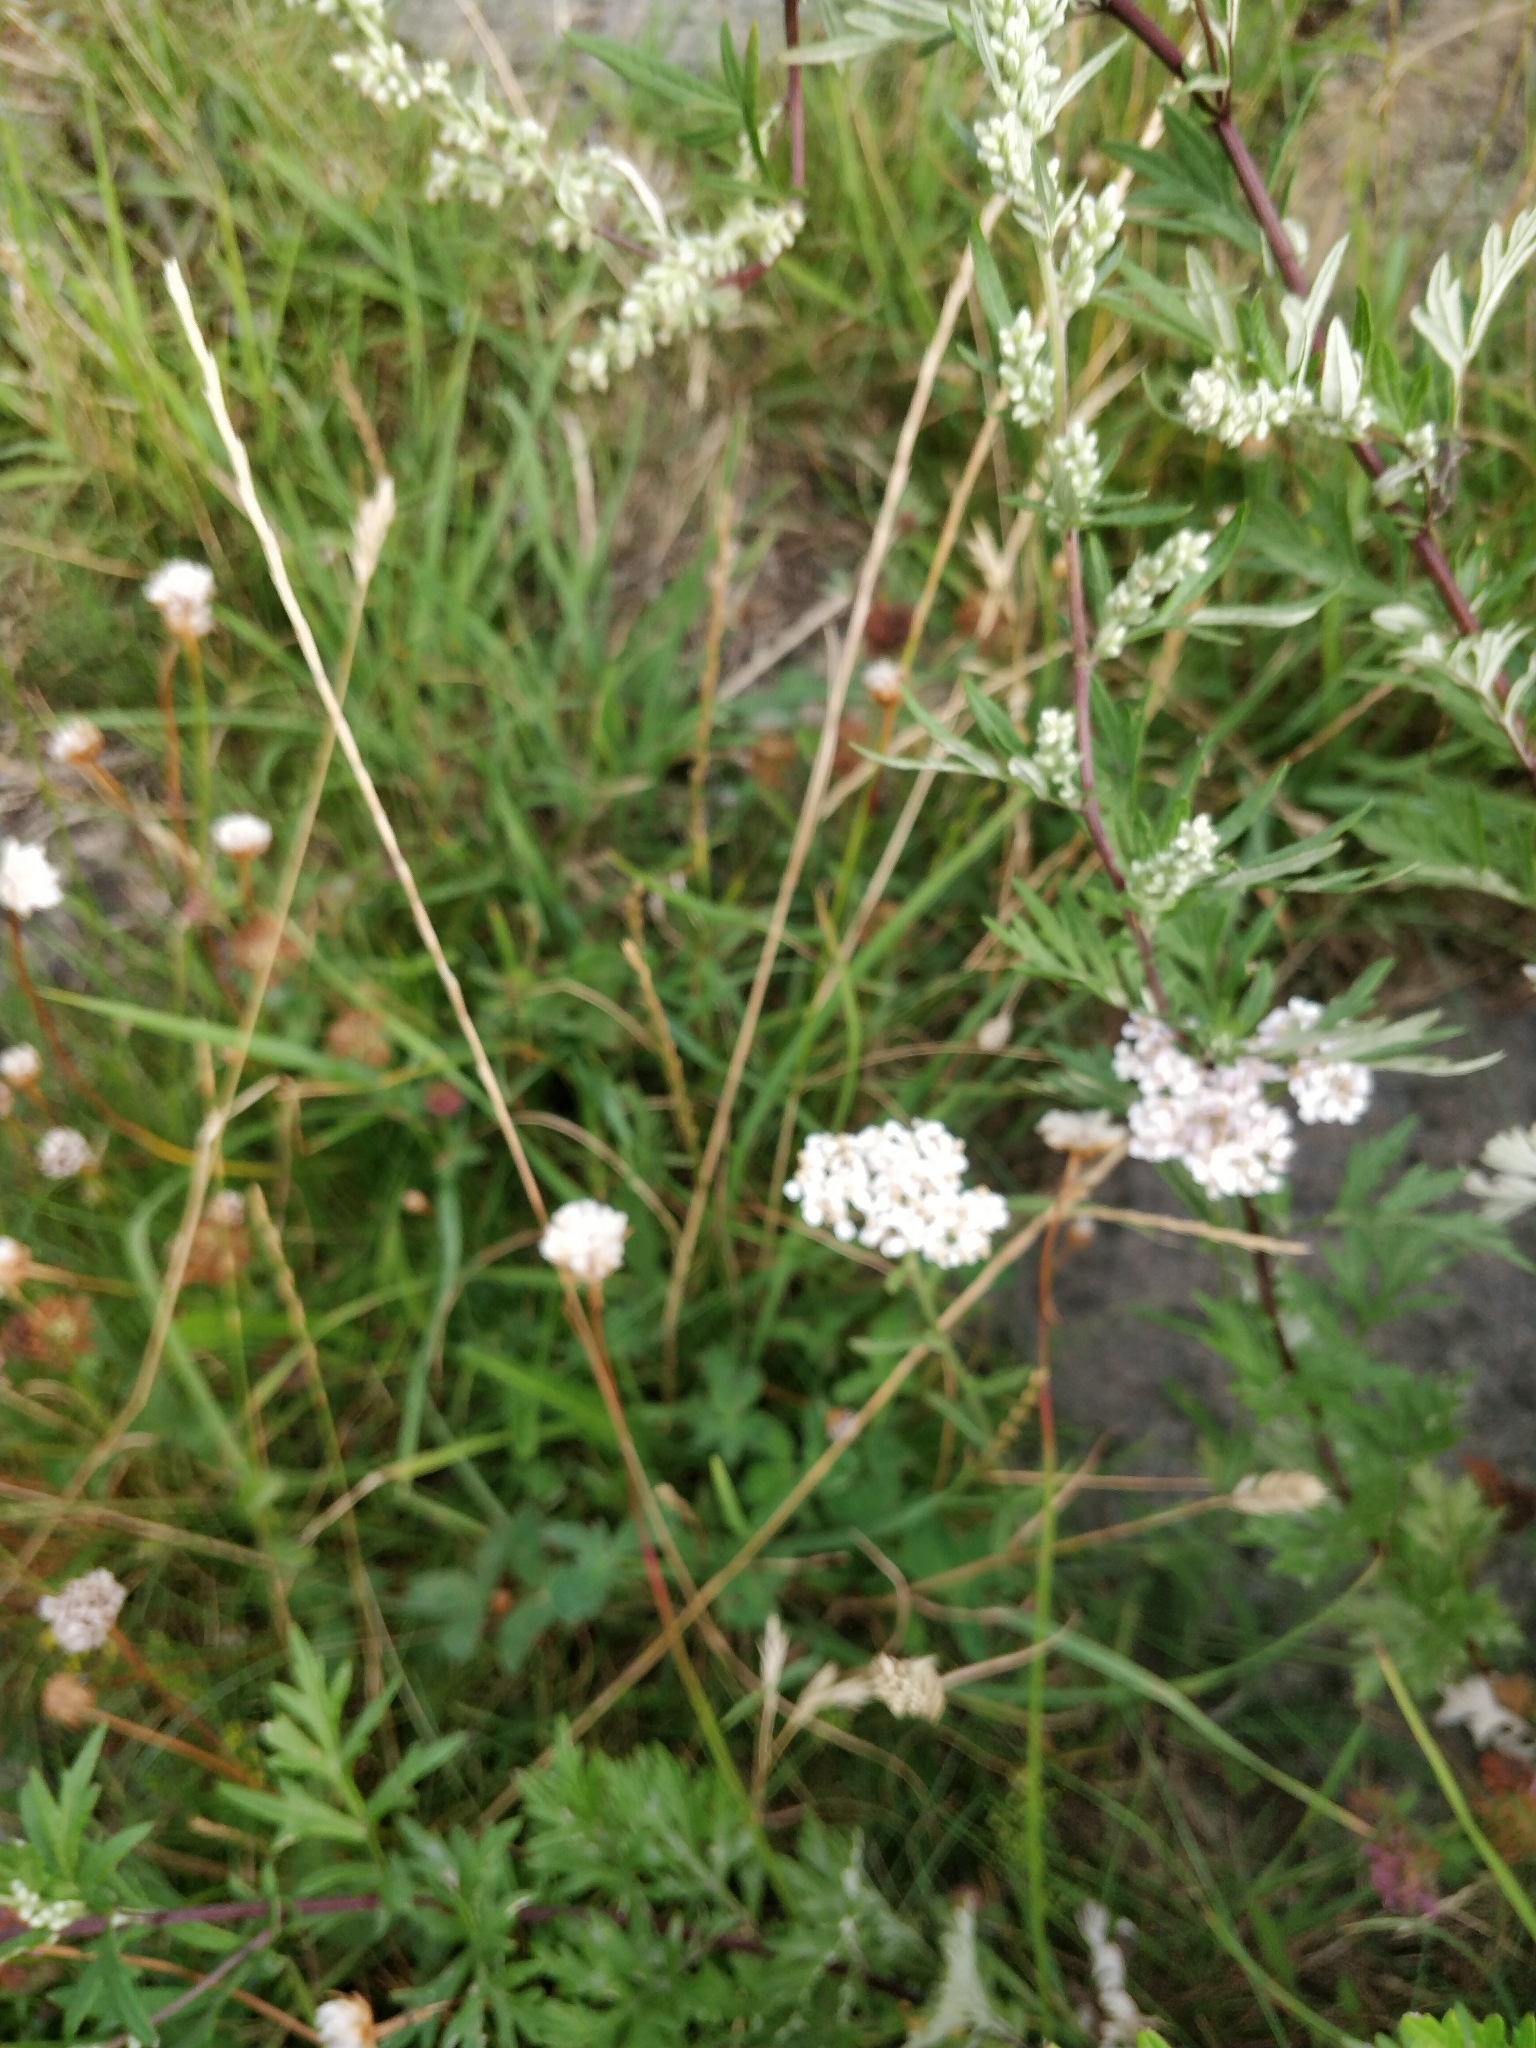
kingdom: Plantae
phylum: Tracheophyta
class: Magnoliopsida
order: Asterales
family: Asteraceae
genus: Artemisia
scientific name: Artemisia vulgaris
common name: Mugwort
